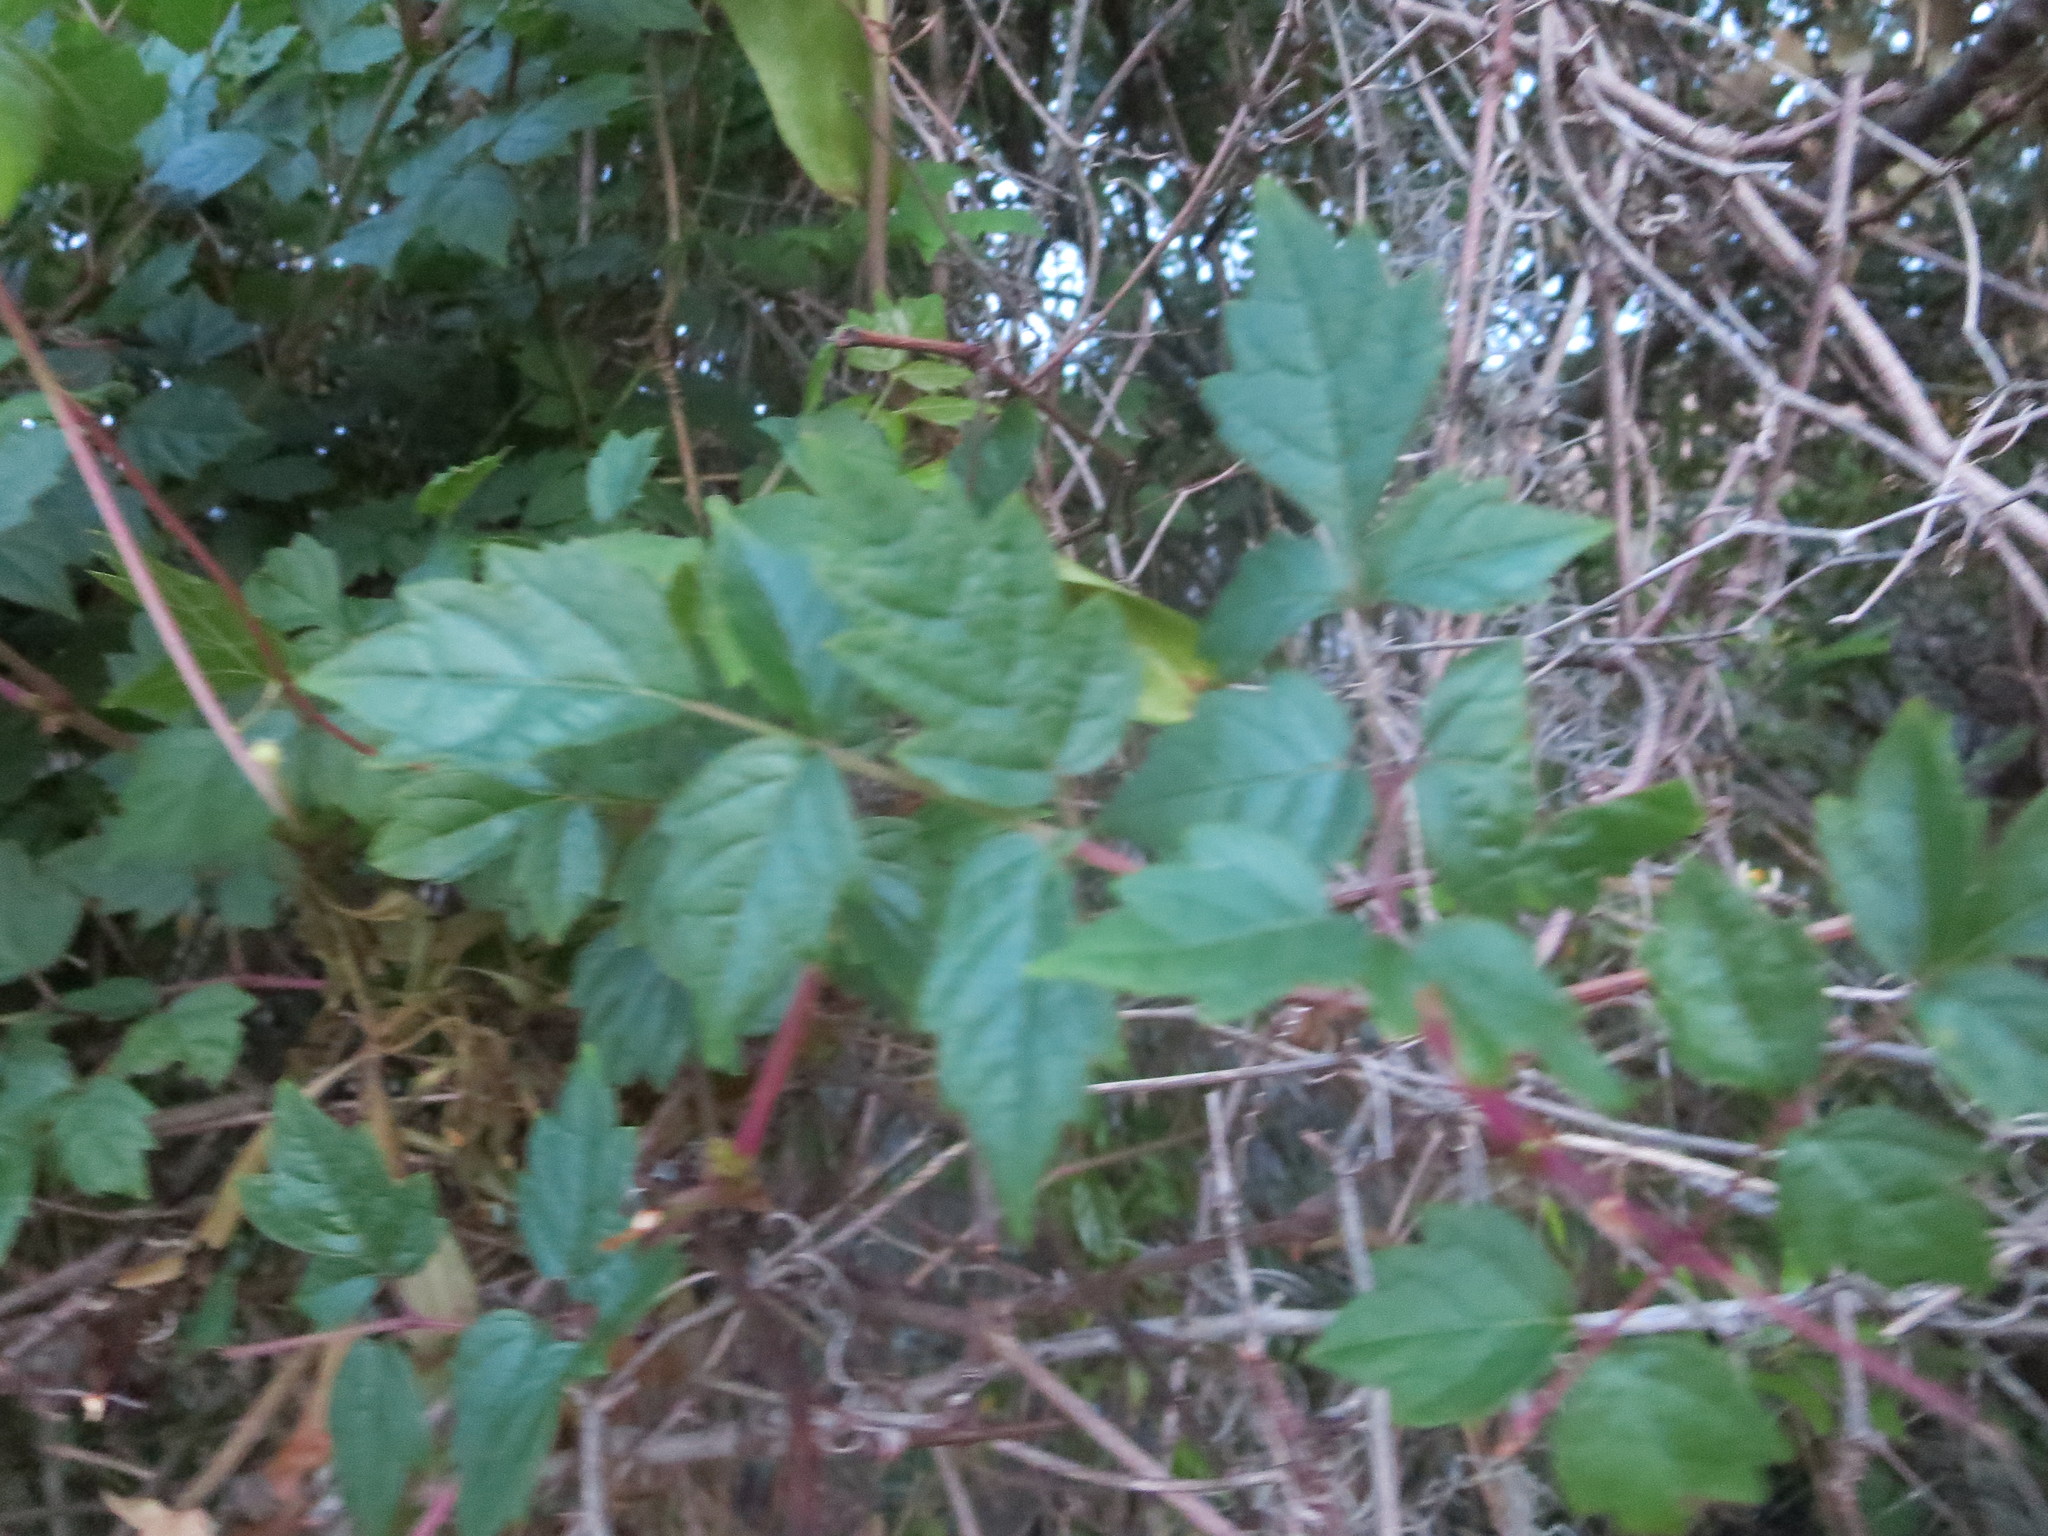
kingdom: Plantae
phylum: Tracheophyta
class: Magnoliopsida
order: Vitales
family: Vitaceae
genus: Nekemias
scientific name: Nekemias arborea
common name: Peppervine
